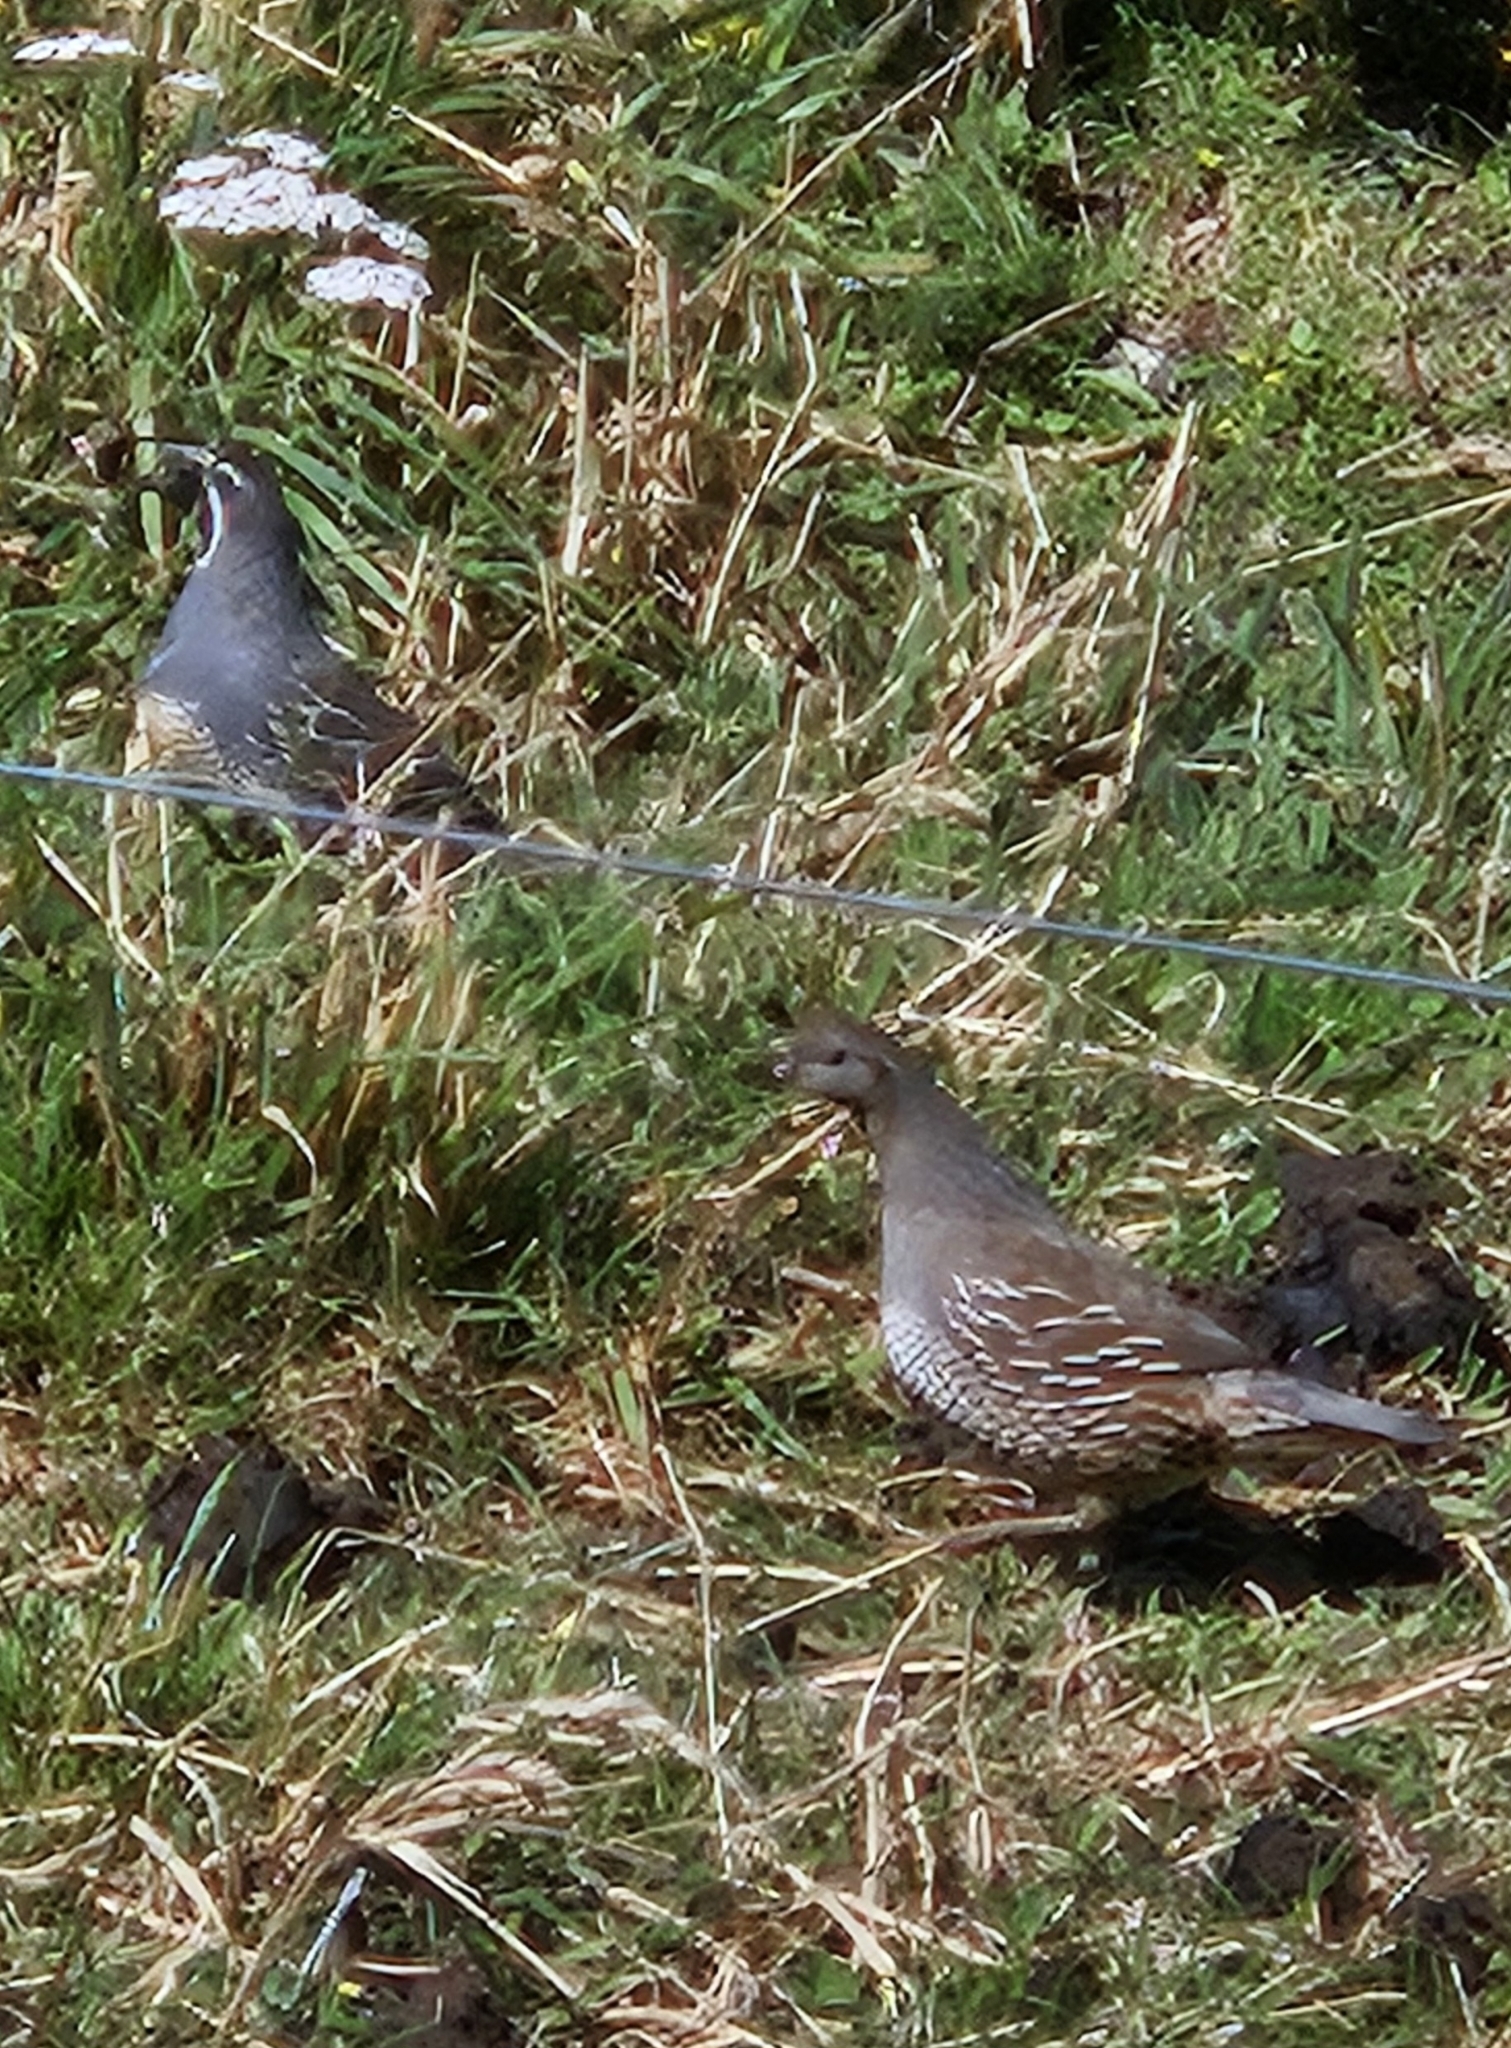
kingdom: Animalia
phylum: Chordata
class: Aves
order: Galliformes
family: Odontophoridae
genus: Callipepla
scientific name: Callipepla californica
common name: California quail
